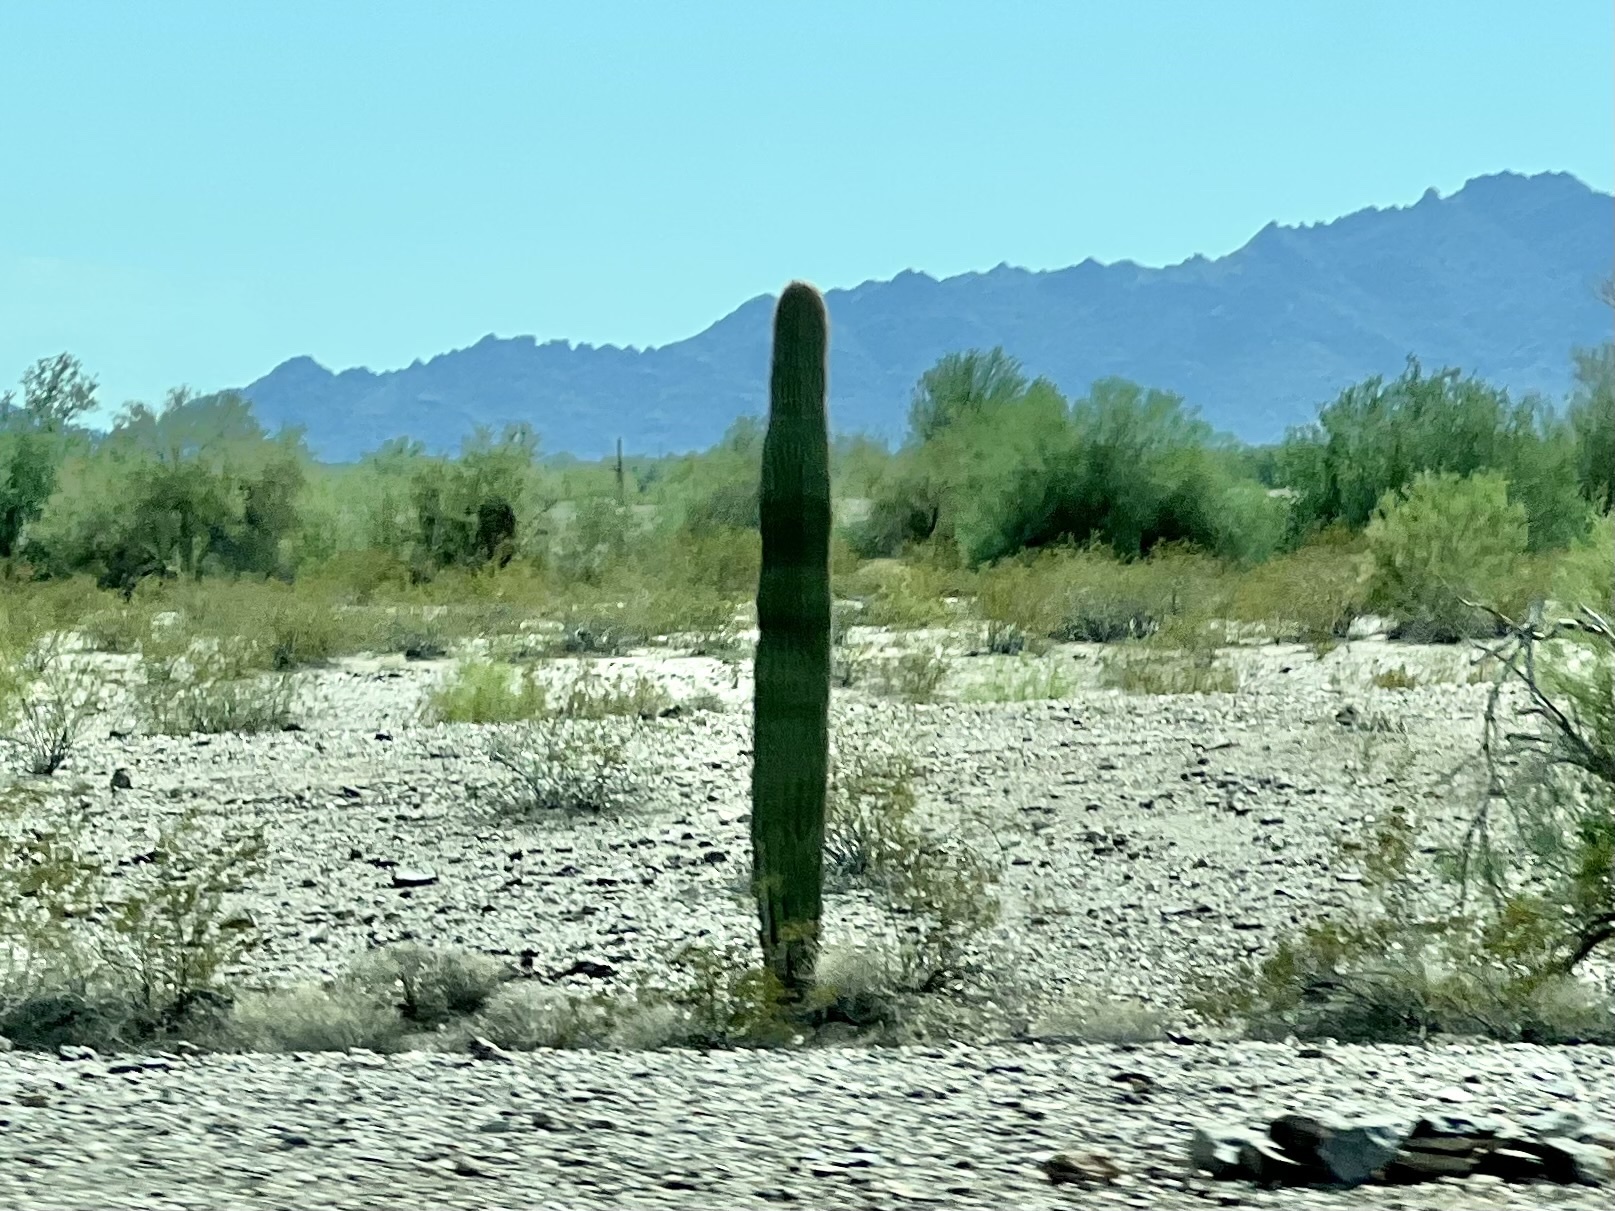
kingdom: Plantae
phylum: Tracheophyta
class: Magnoliopsida
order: Caryophyllales
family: Cactaceae
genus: Carnegiea
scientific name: Carnegiea gigantea
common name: Saguaro
